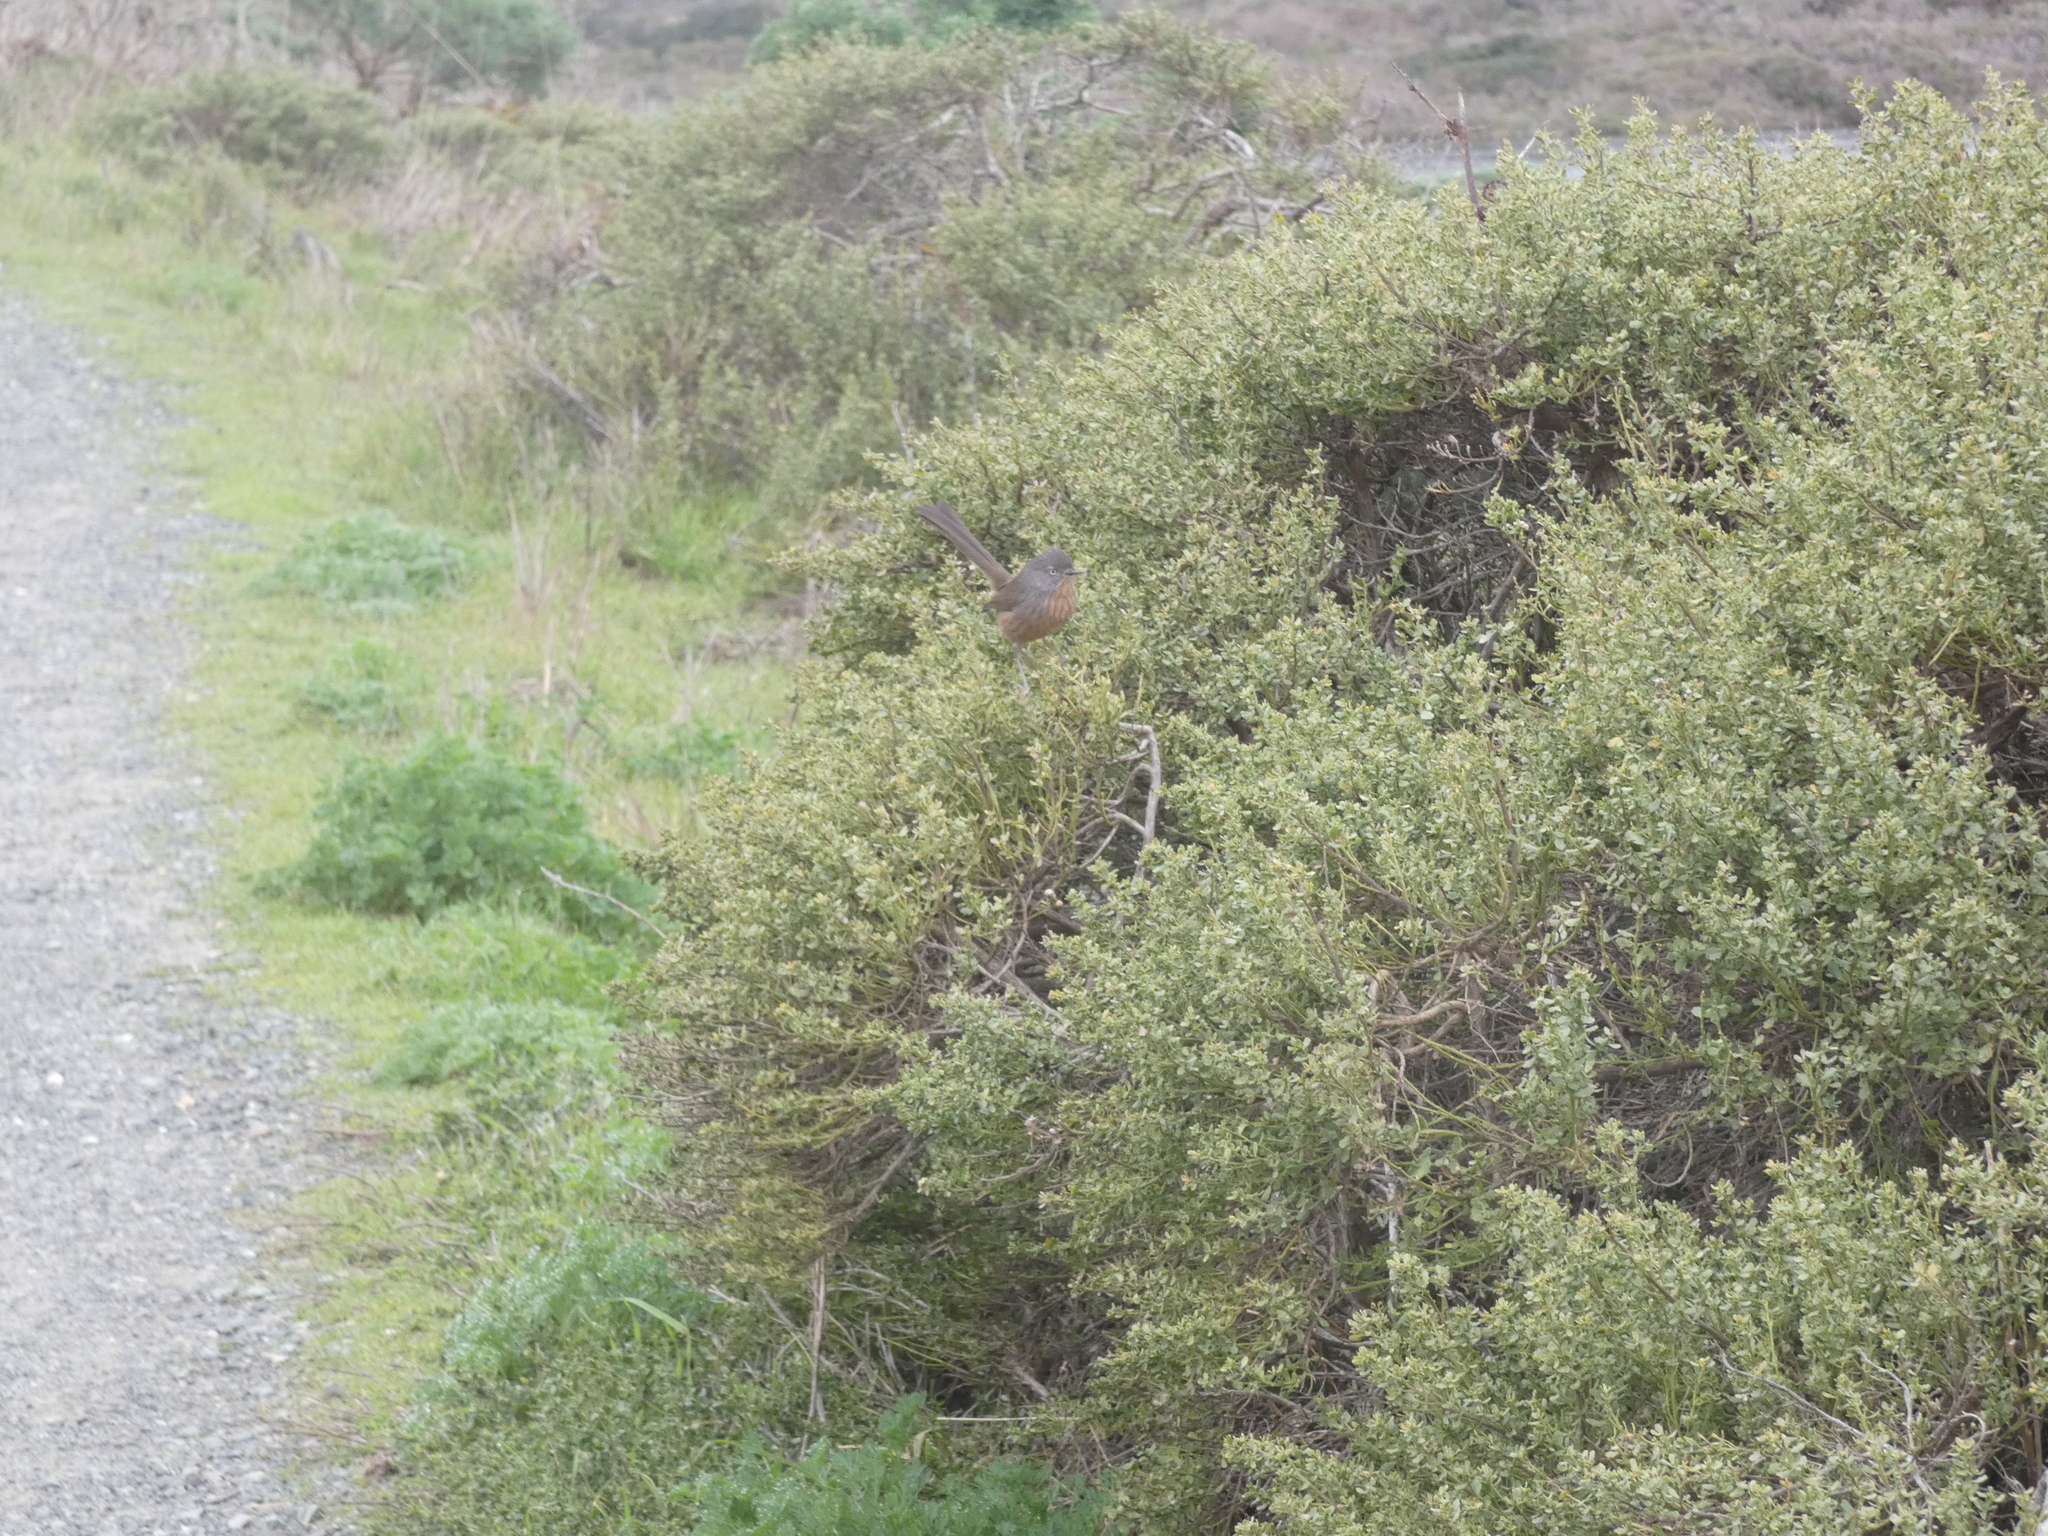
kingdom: Animalia
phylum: Chordata
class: Aves
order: Passeriformes
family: Sylviidae
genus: Chamaea
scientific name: Chamaea fasciata
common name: Wrentit
